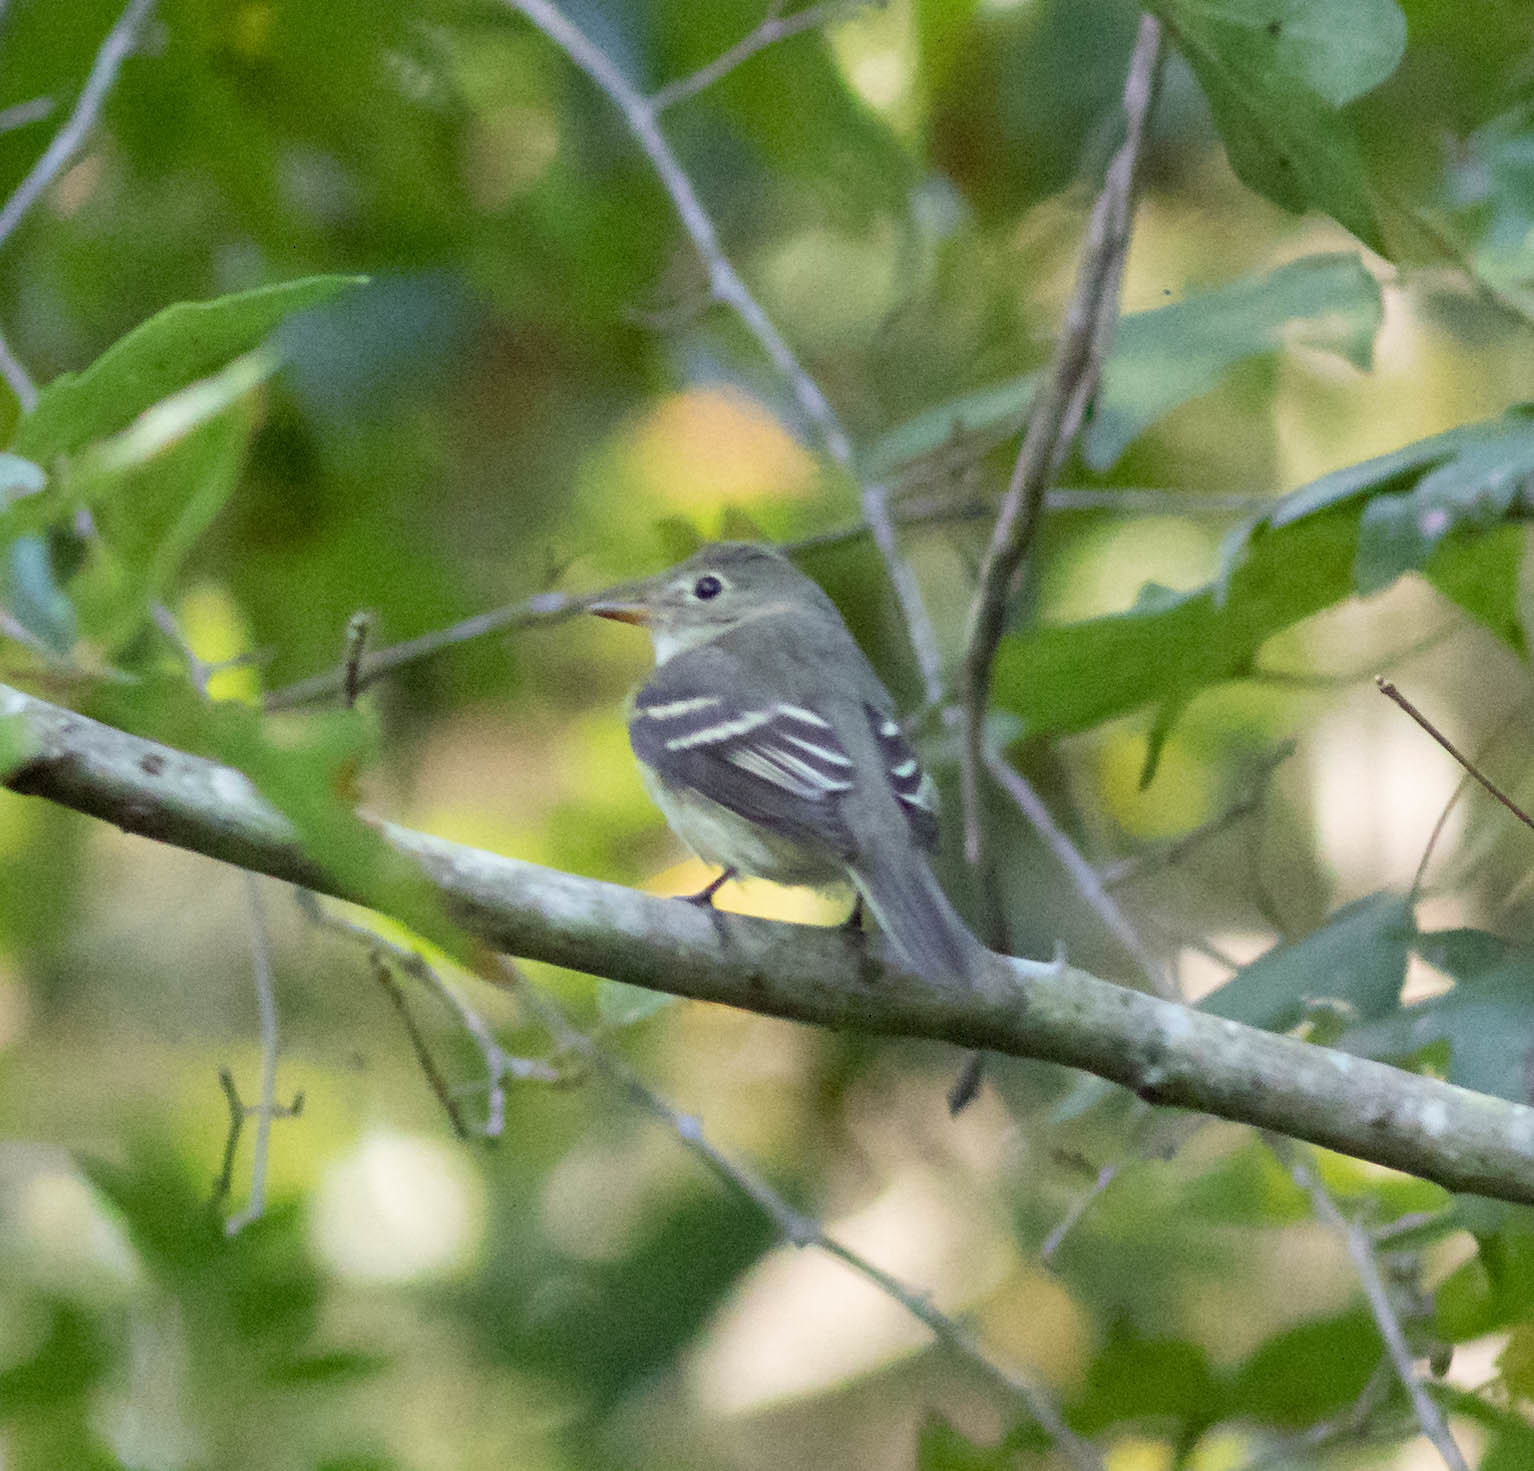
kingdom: Animalia
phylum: Chordata
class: Aves
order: Passeriformes
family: Tyrannidae
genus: Empidonax
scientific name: Empidonax virescens
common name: Acadian flycatcher
